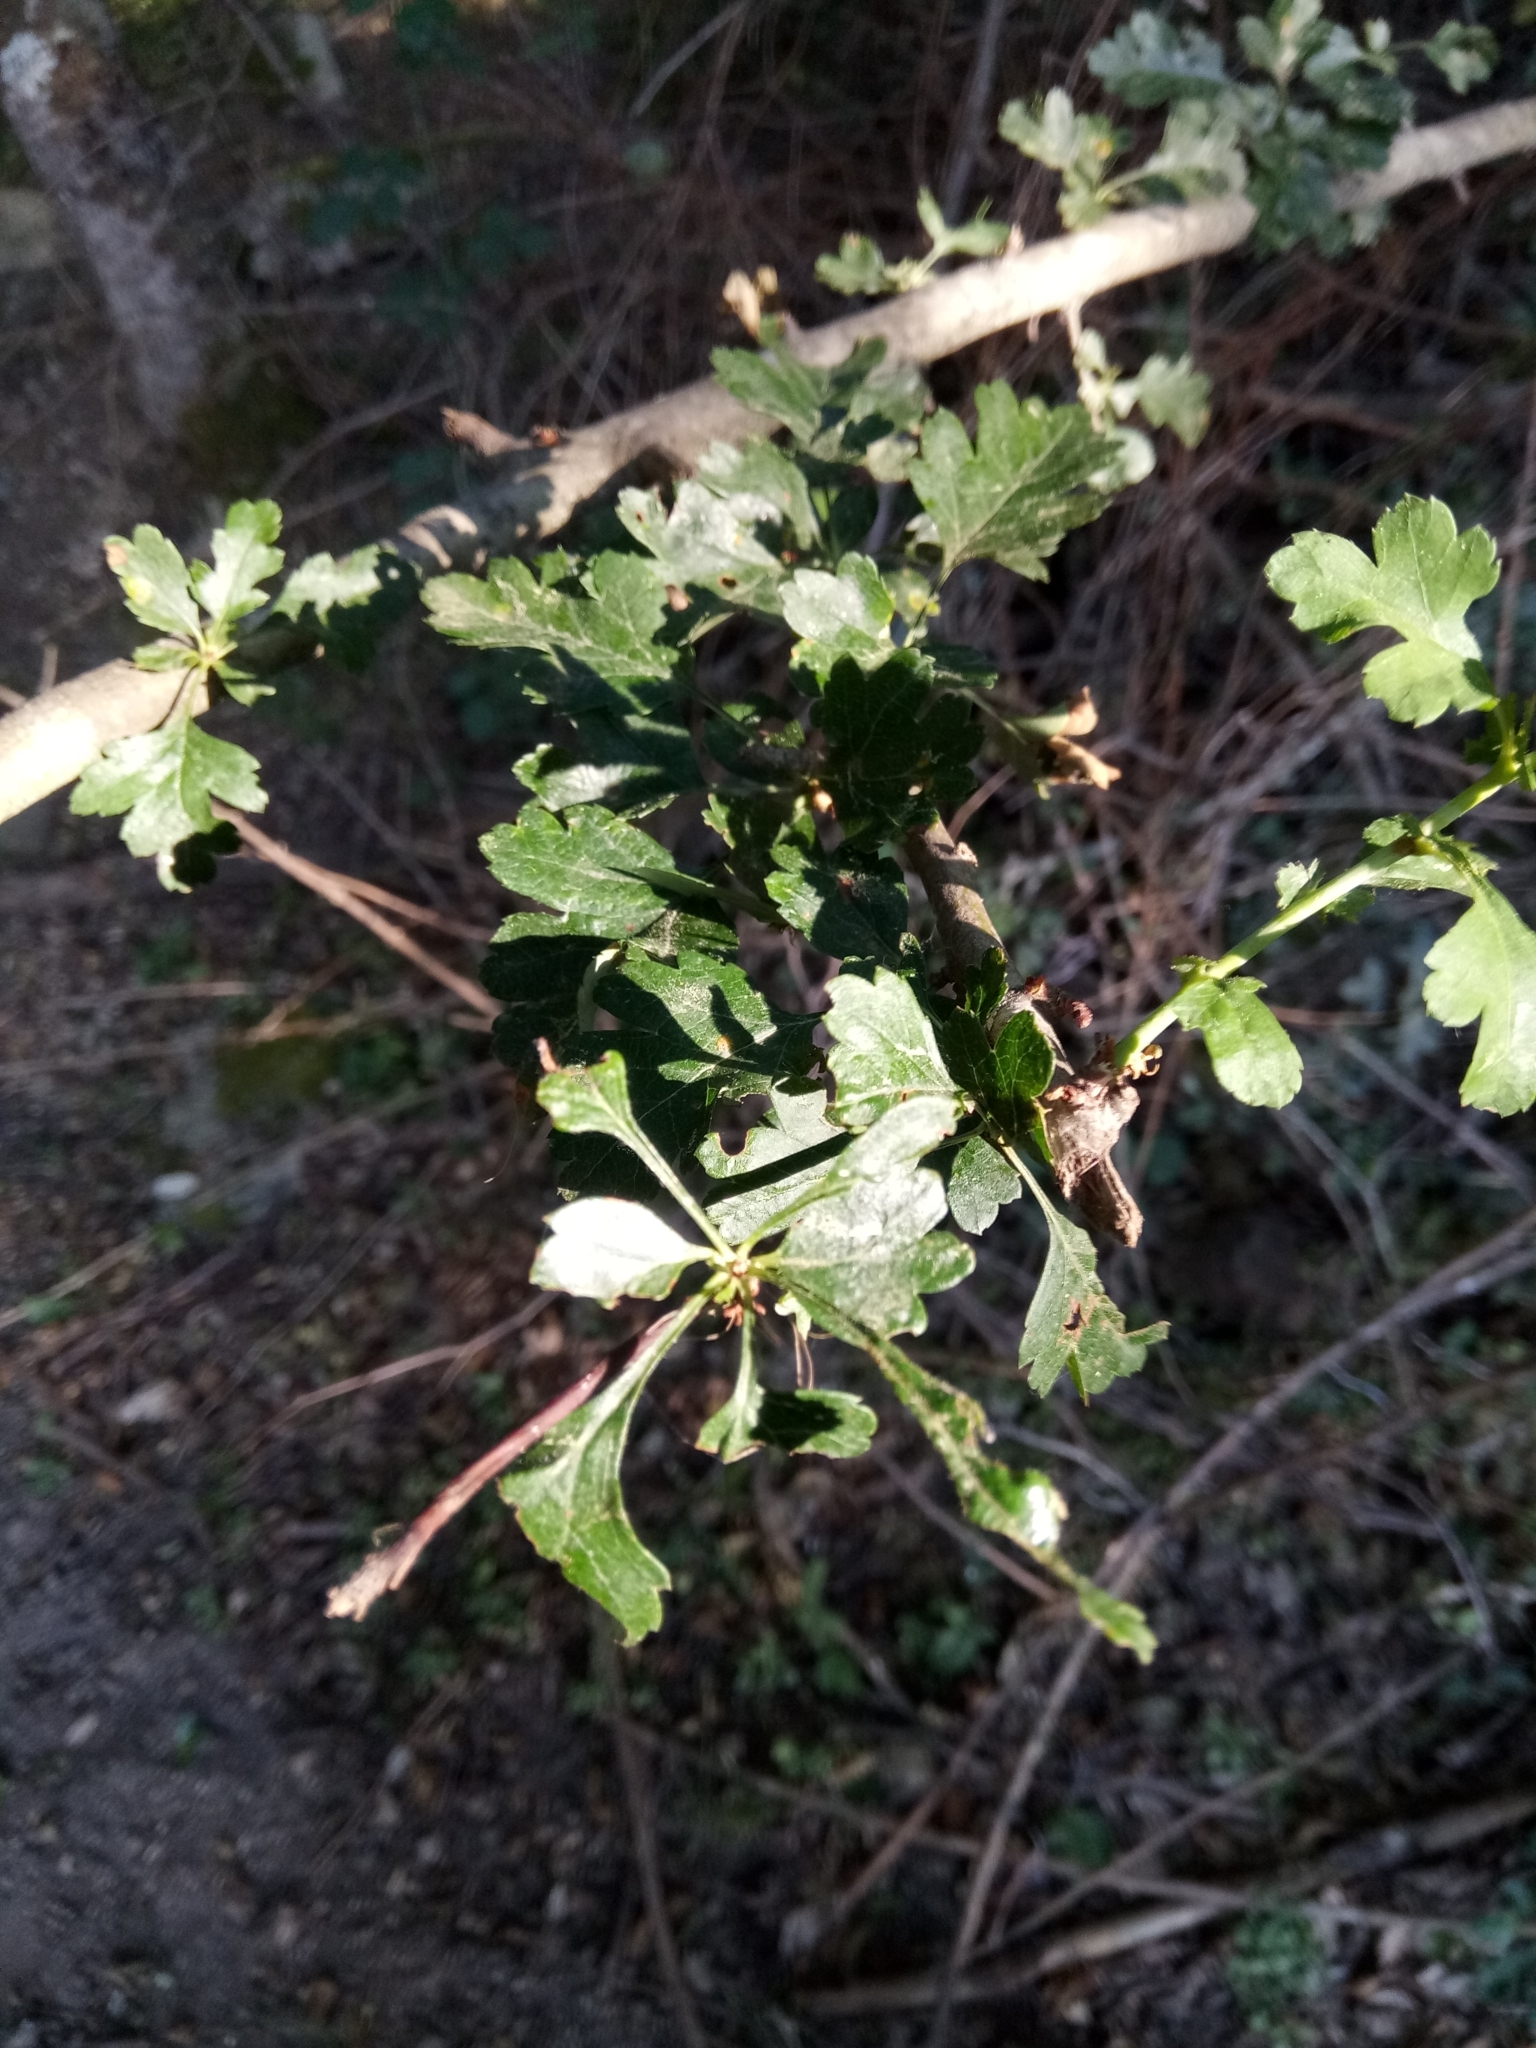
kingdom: Plantae
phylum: Tracheophyta
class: Magnoliopsida
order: Rosales
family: Rosaceae
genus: Crataegus
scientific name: Crataegus monogyna
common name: Hawthorn
